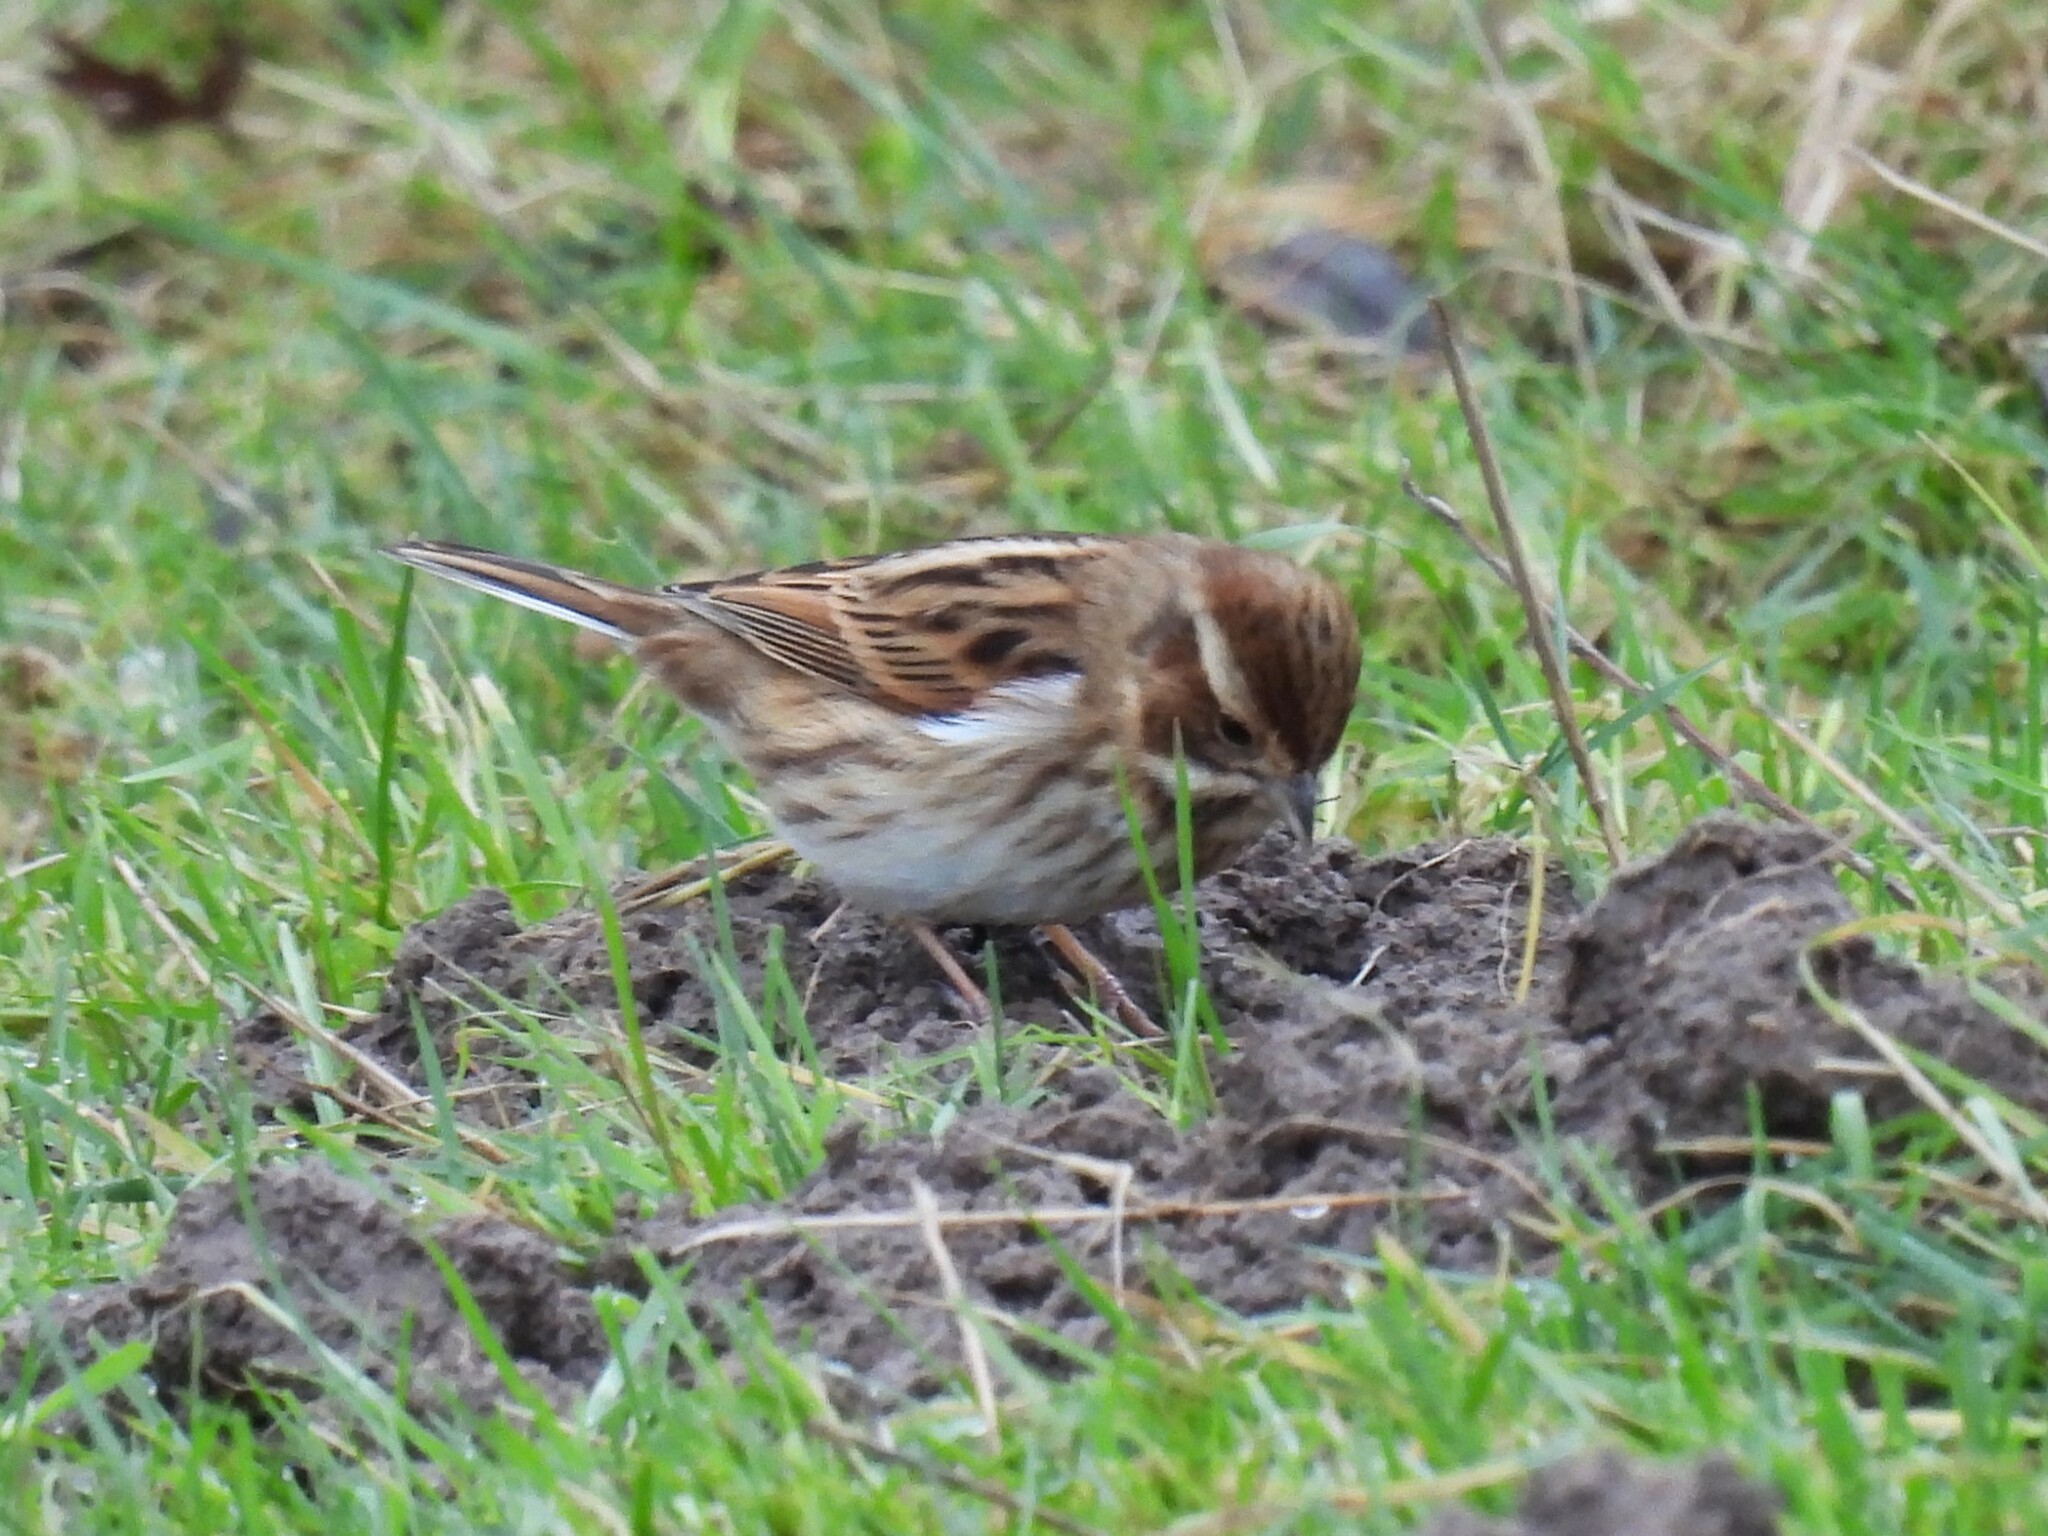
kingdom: Animalia
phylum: Chordata
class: Aves
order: Passeriformes
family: Emberizidae
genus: Emberiza
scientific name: Emberiza schoeniclus
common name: Reed bunting
